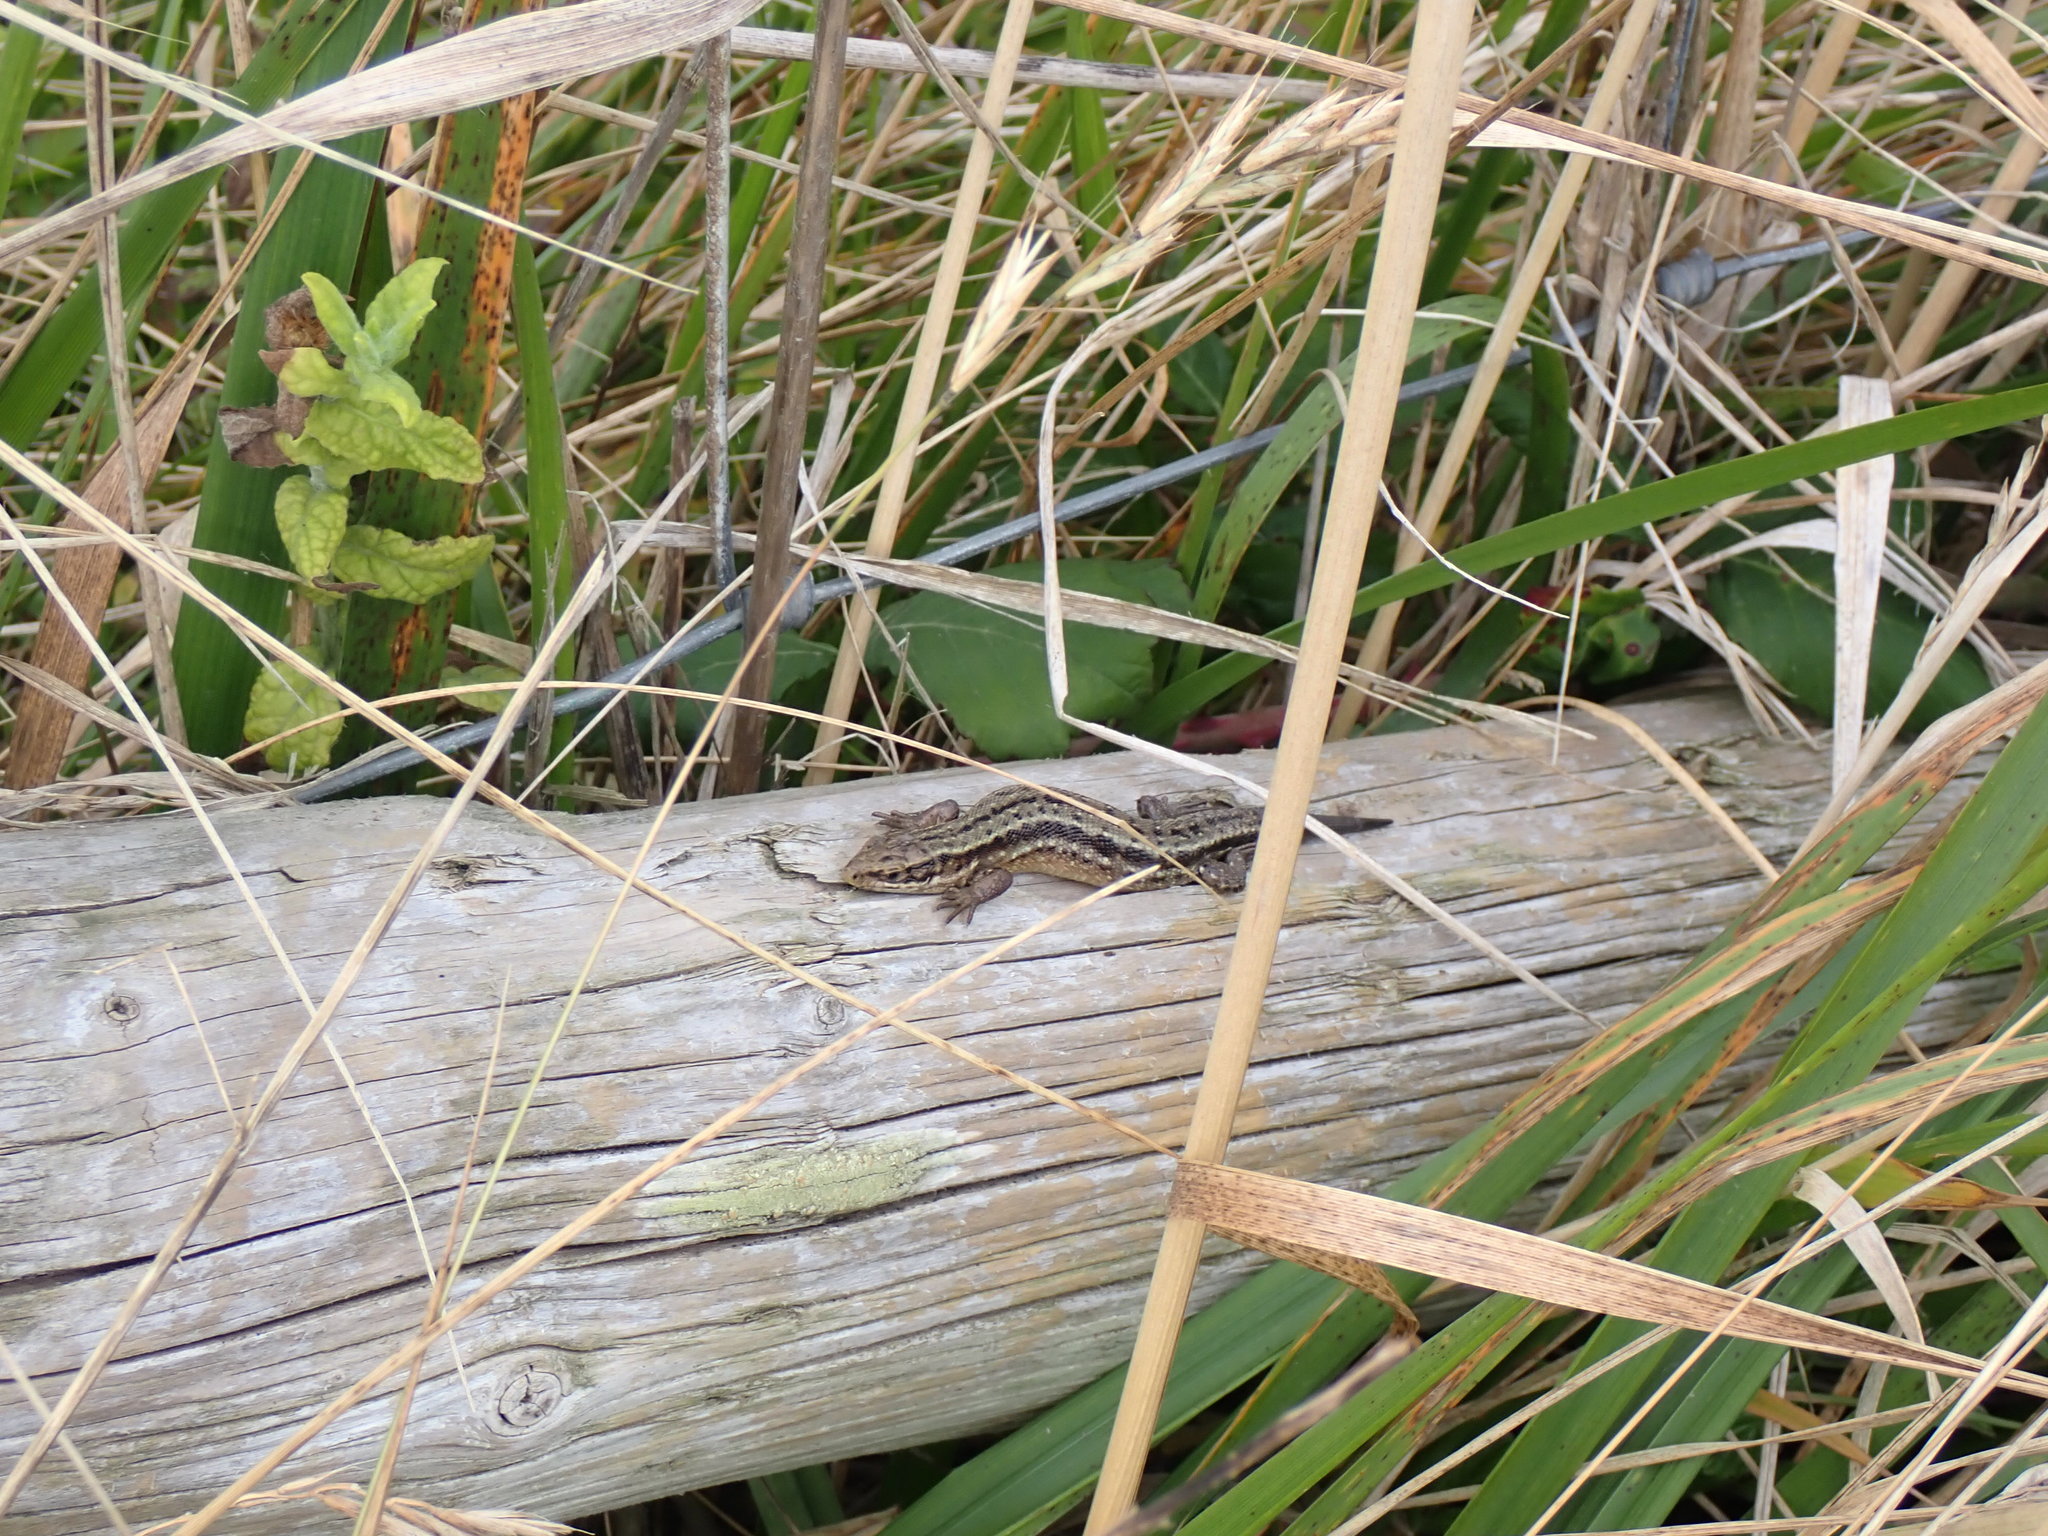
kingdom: Animalia
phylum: Chordata
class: Squamata
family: Lacertidae
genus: Zootoca
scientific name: Zootoca vivipara
